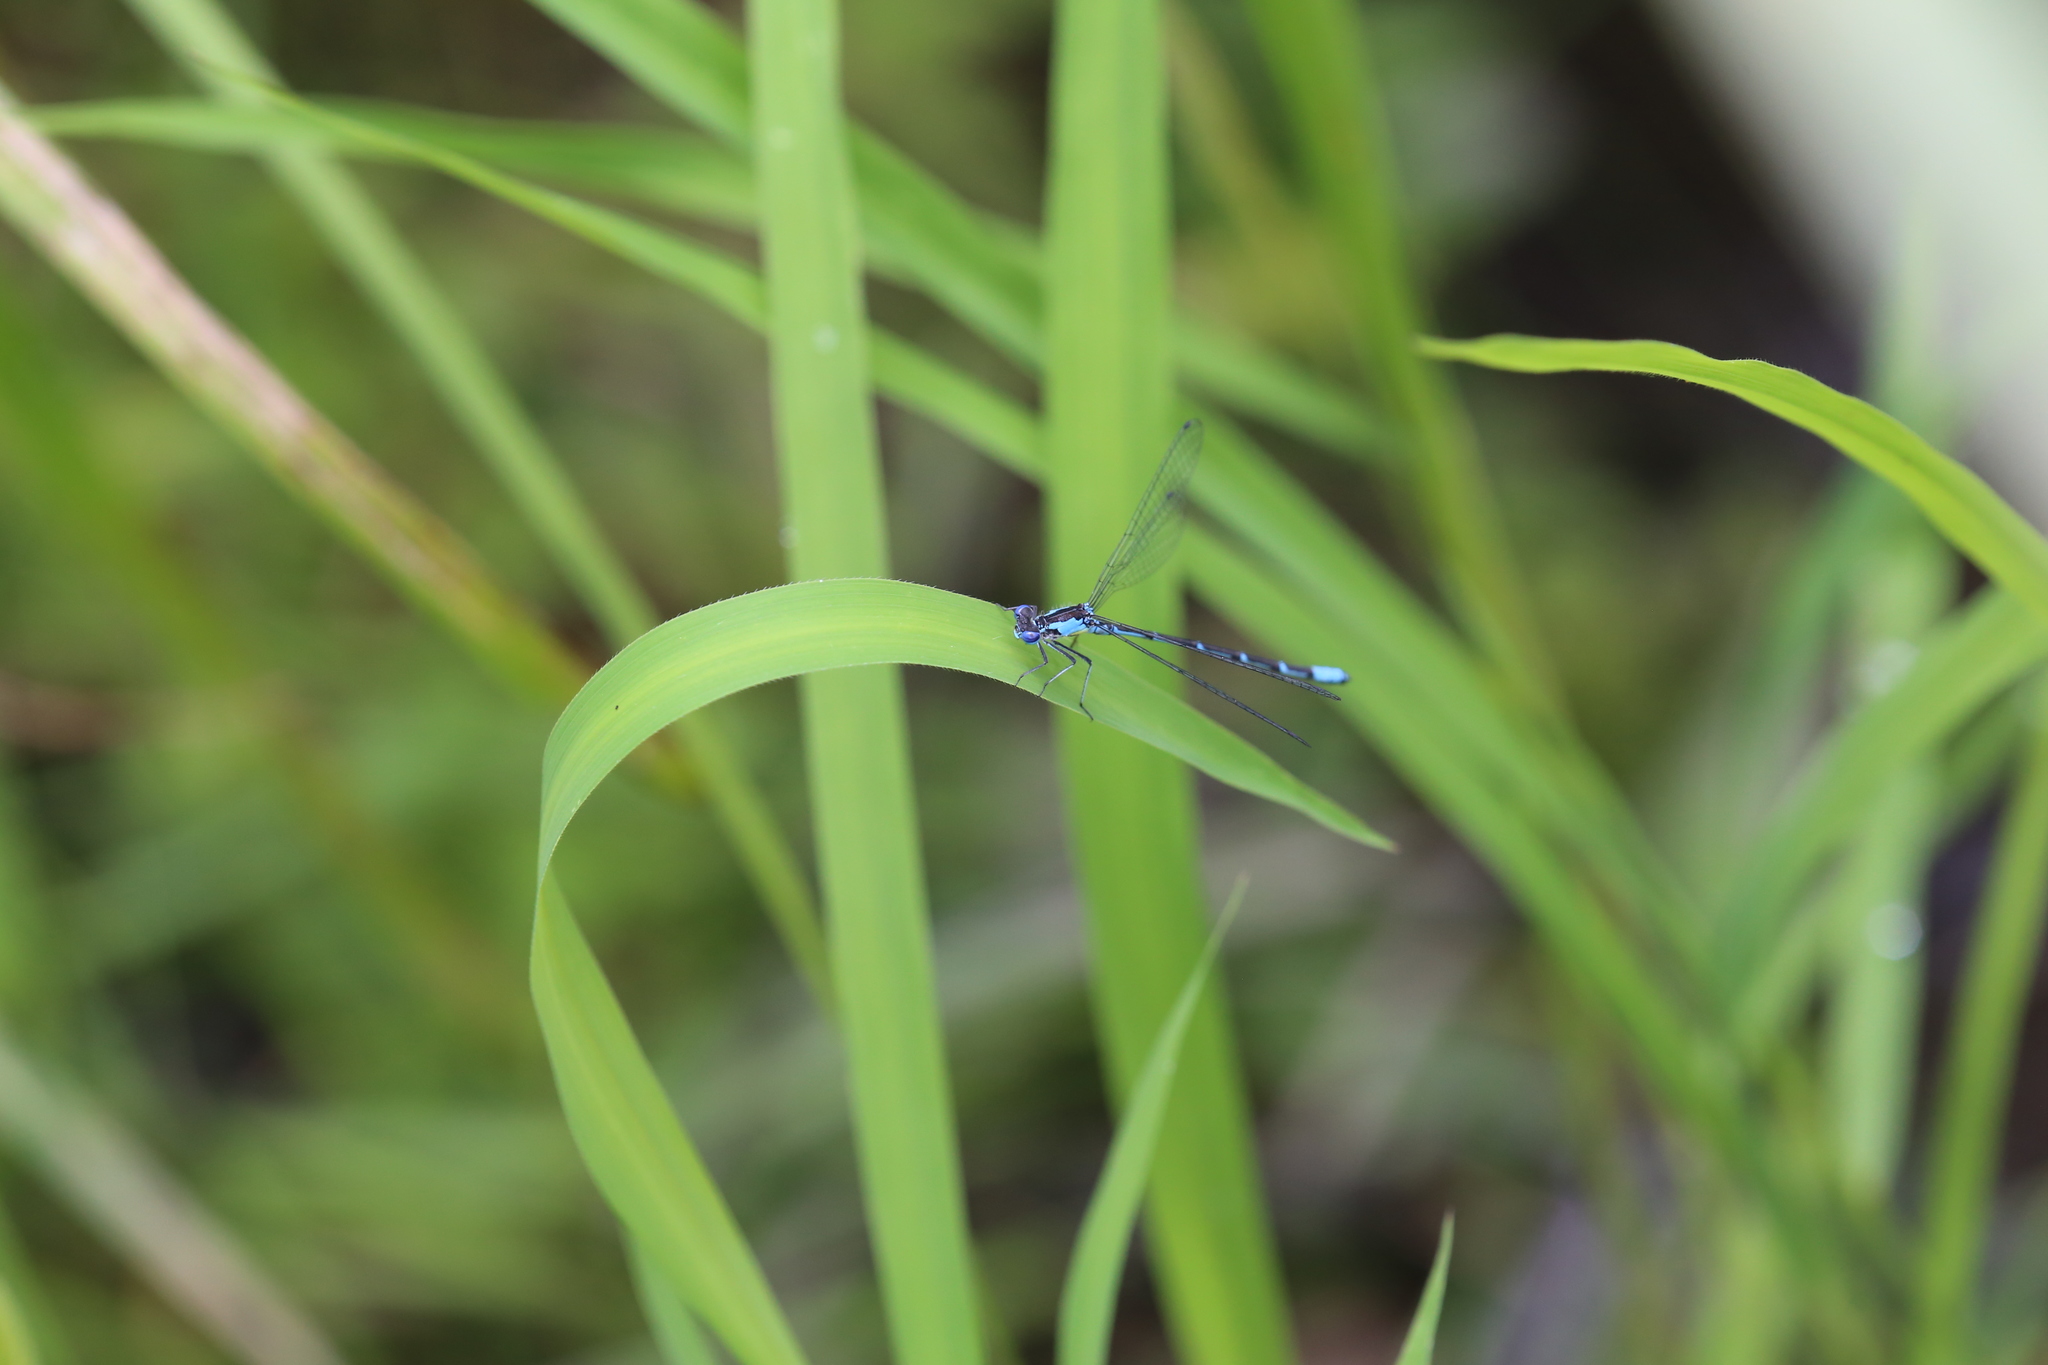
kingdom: Animalia
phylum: Arthropoda
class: Insecta
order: Odonata
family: Coenagrionidae
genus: Chromagrion
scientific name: Chromagrion conditum
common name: Aurora damsel
